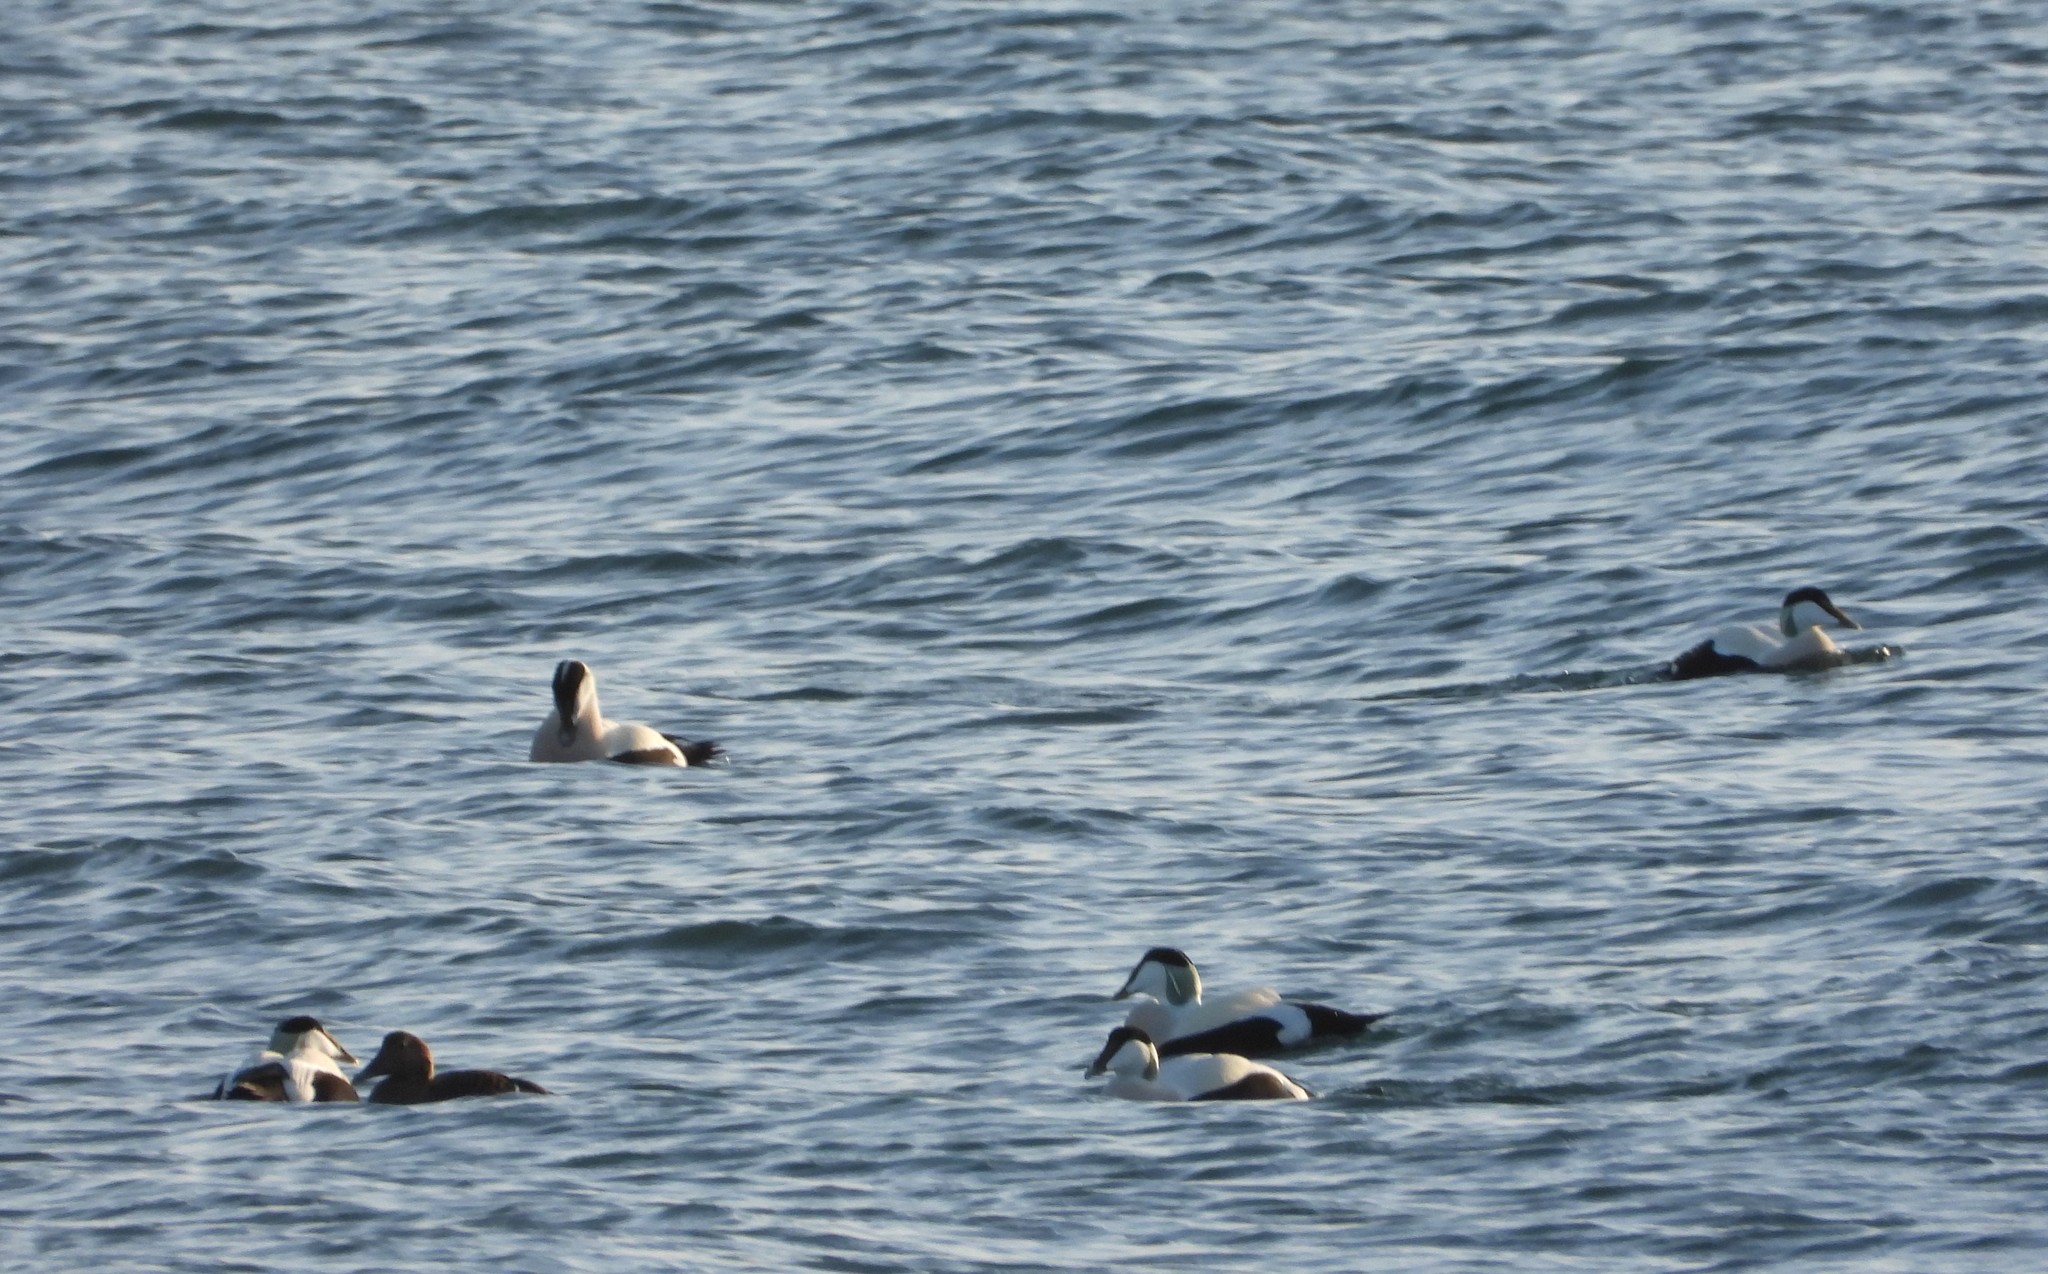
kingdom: Animalia
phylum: Chordata
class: Aves
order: Anseriformes
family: Anatidae
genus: Somateria
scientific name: Somateria mollissima
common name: Common eider
